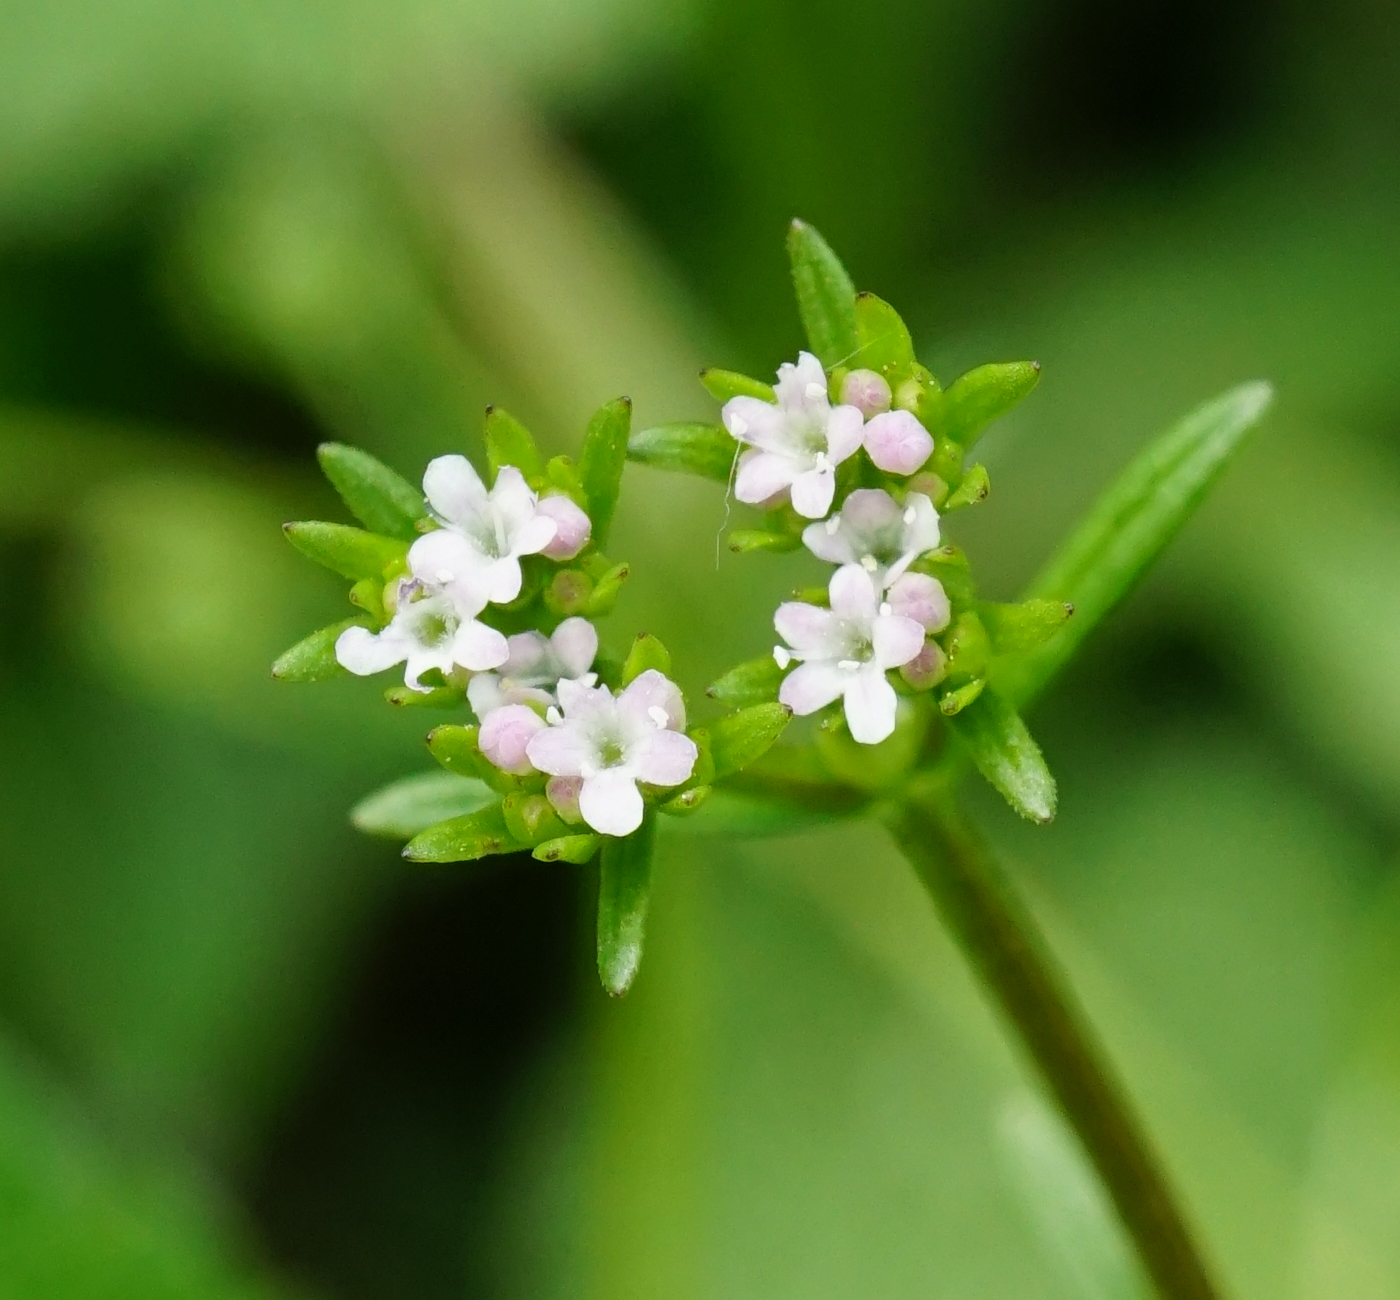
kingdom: Plantae
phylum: Tracheophyta
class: Magnoliopsida
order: Dipsacales
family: Caprifoliaceae
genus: Valerianella
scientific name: Valerianella dentata
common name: Narrow-fruited cornsalad
